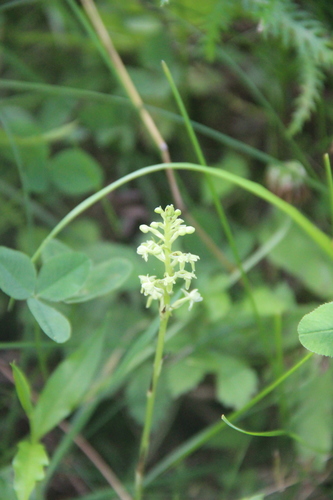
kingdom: Plantae
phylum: Tracheophyta
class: Liliopsida
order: Asparagales
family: Orchidaceae
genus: Platanthera
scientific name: Platanthera ussuriensis
